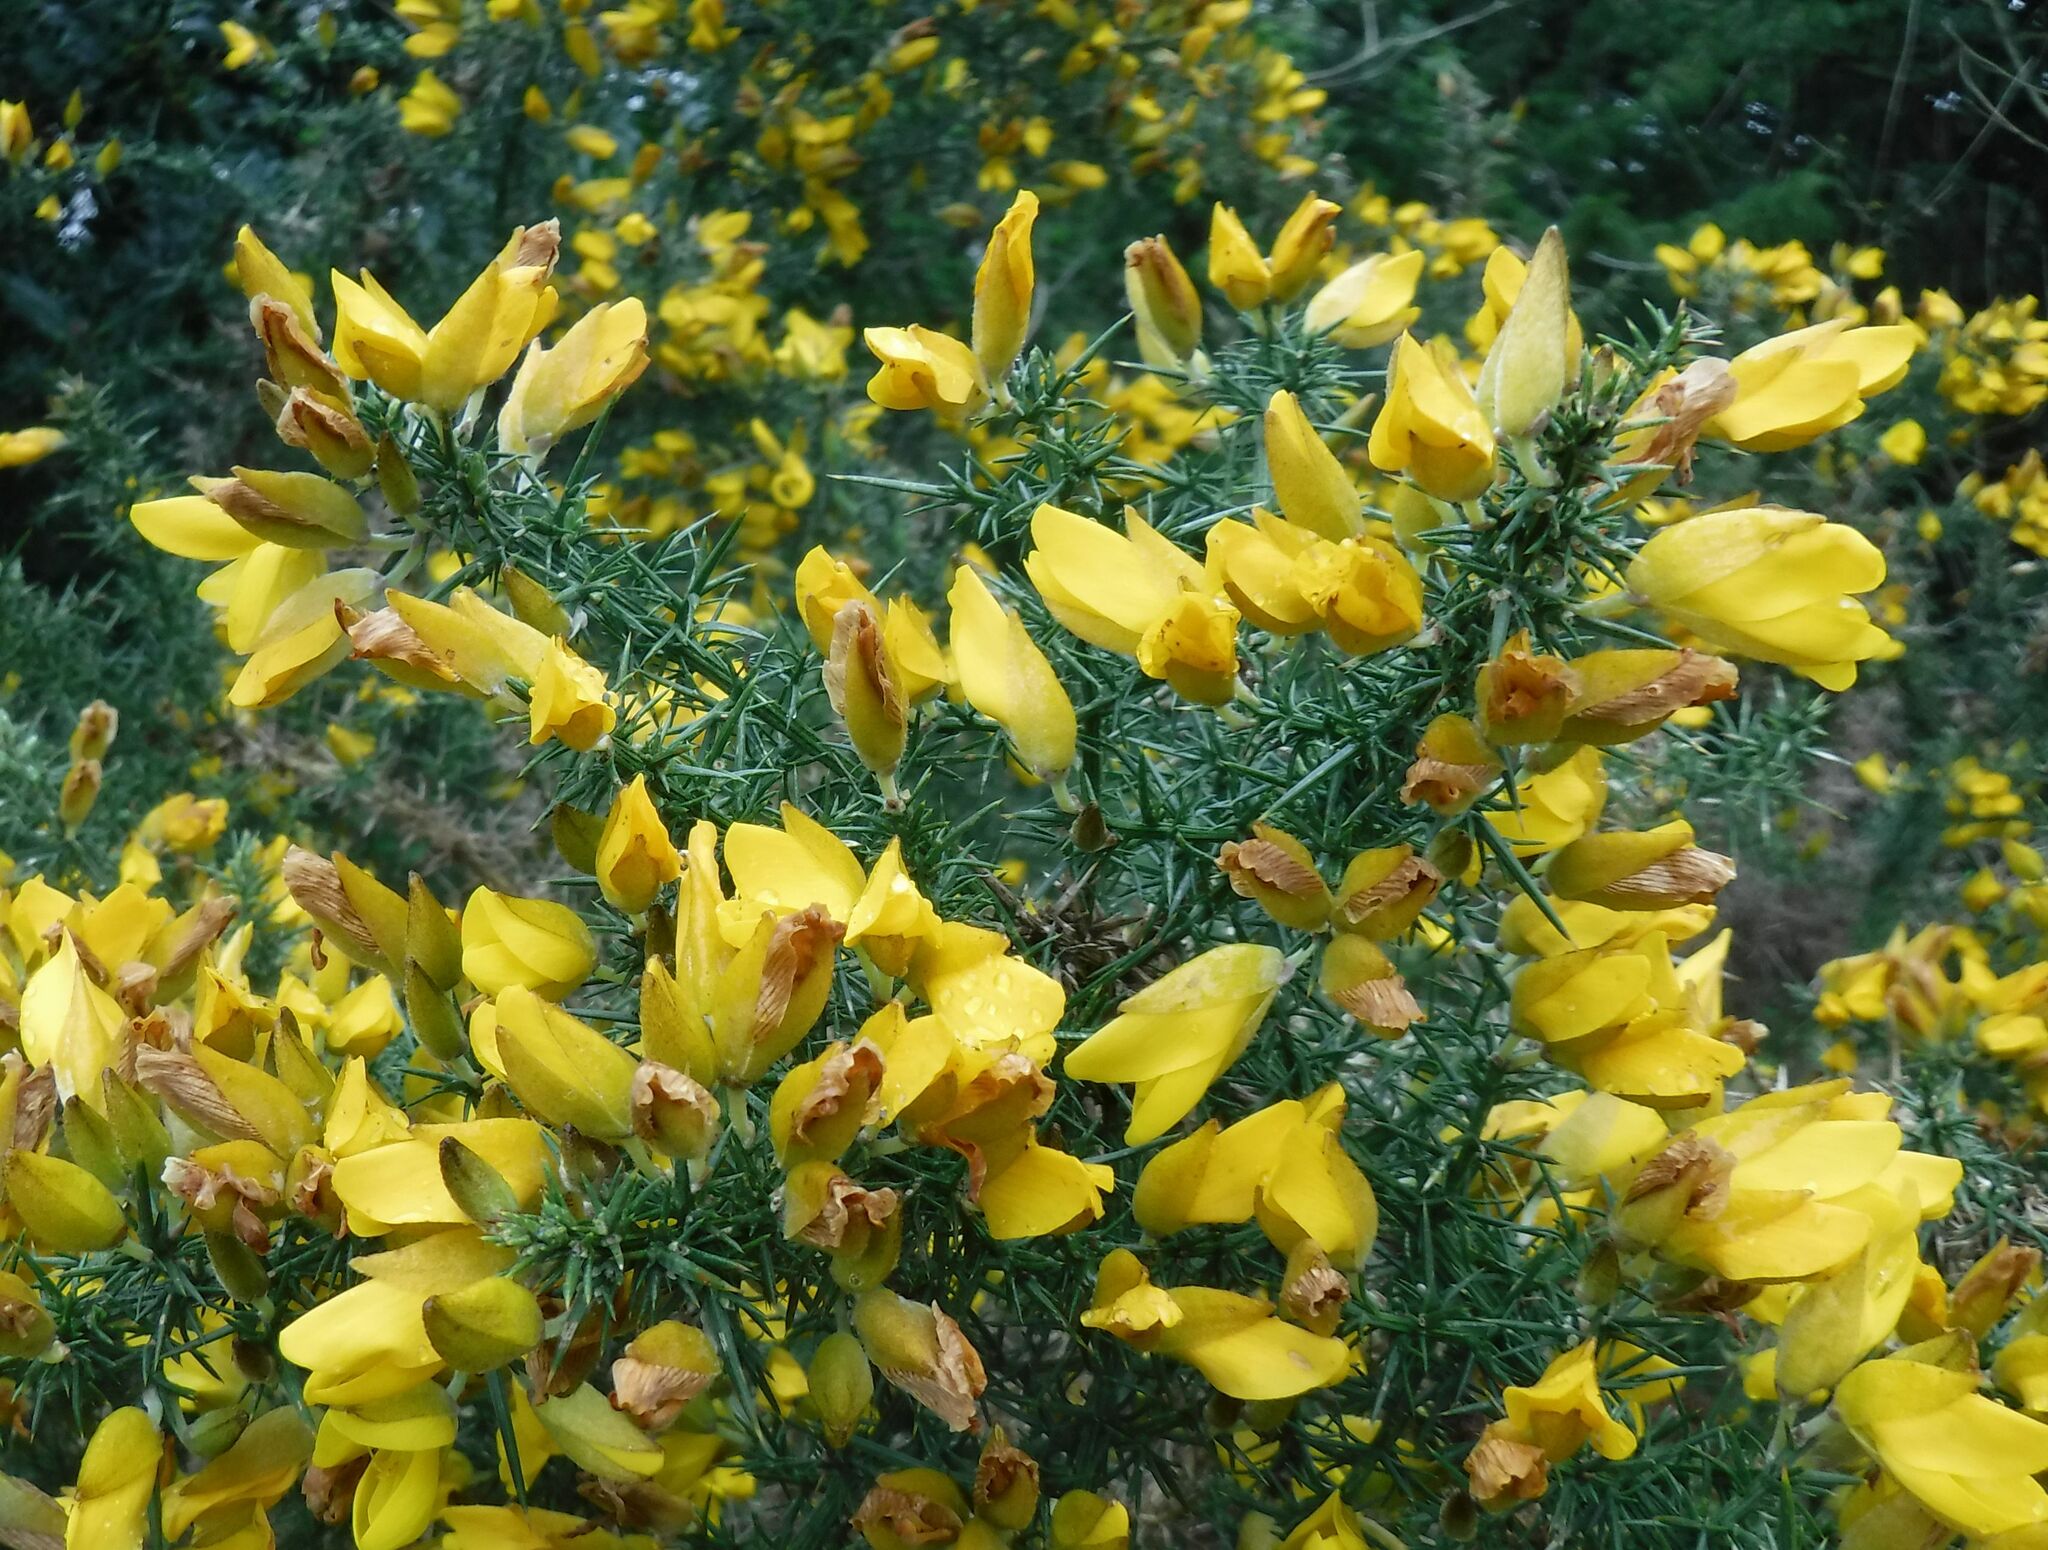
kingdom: Plantae
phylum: Tracheophyta
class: Magnoliopsida
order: Fabales
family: Fabaceae
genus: Ulex
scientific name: Ulex europaeus
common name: Common gorse
